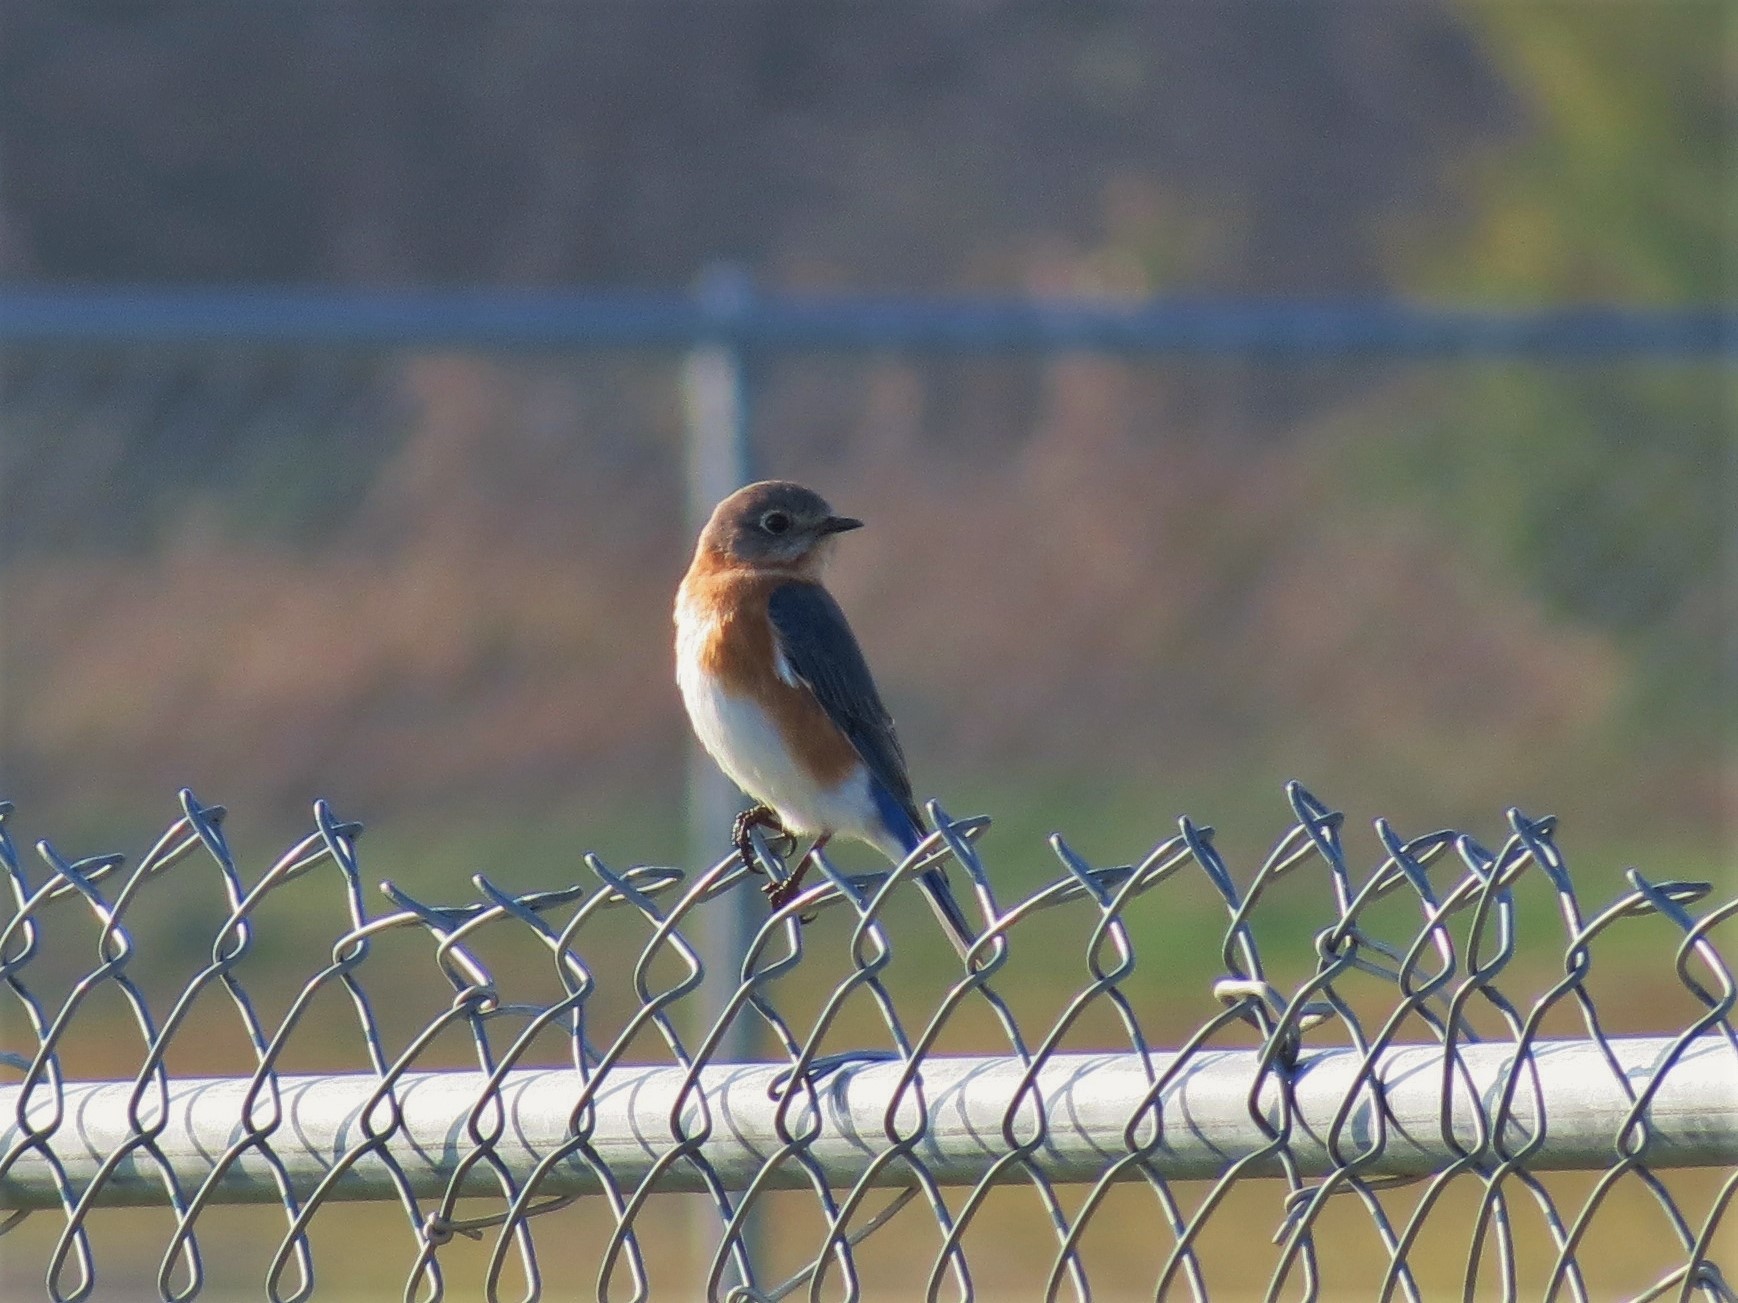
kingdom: Animalia
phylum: Chordata
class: Aves
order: Passeriformes
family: Turdidae
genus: Sialia
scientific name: Sialia sialis
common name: Eastern bluebird
